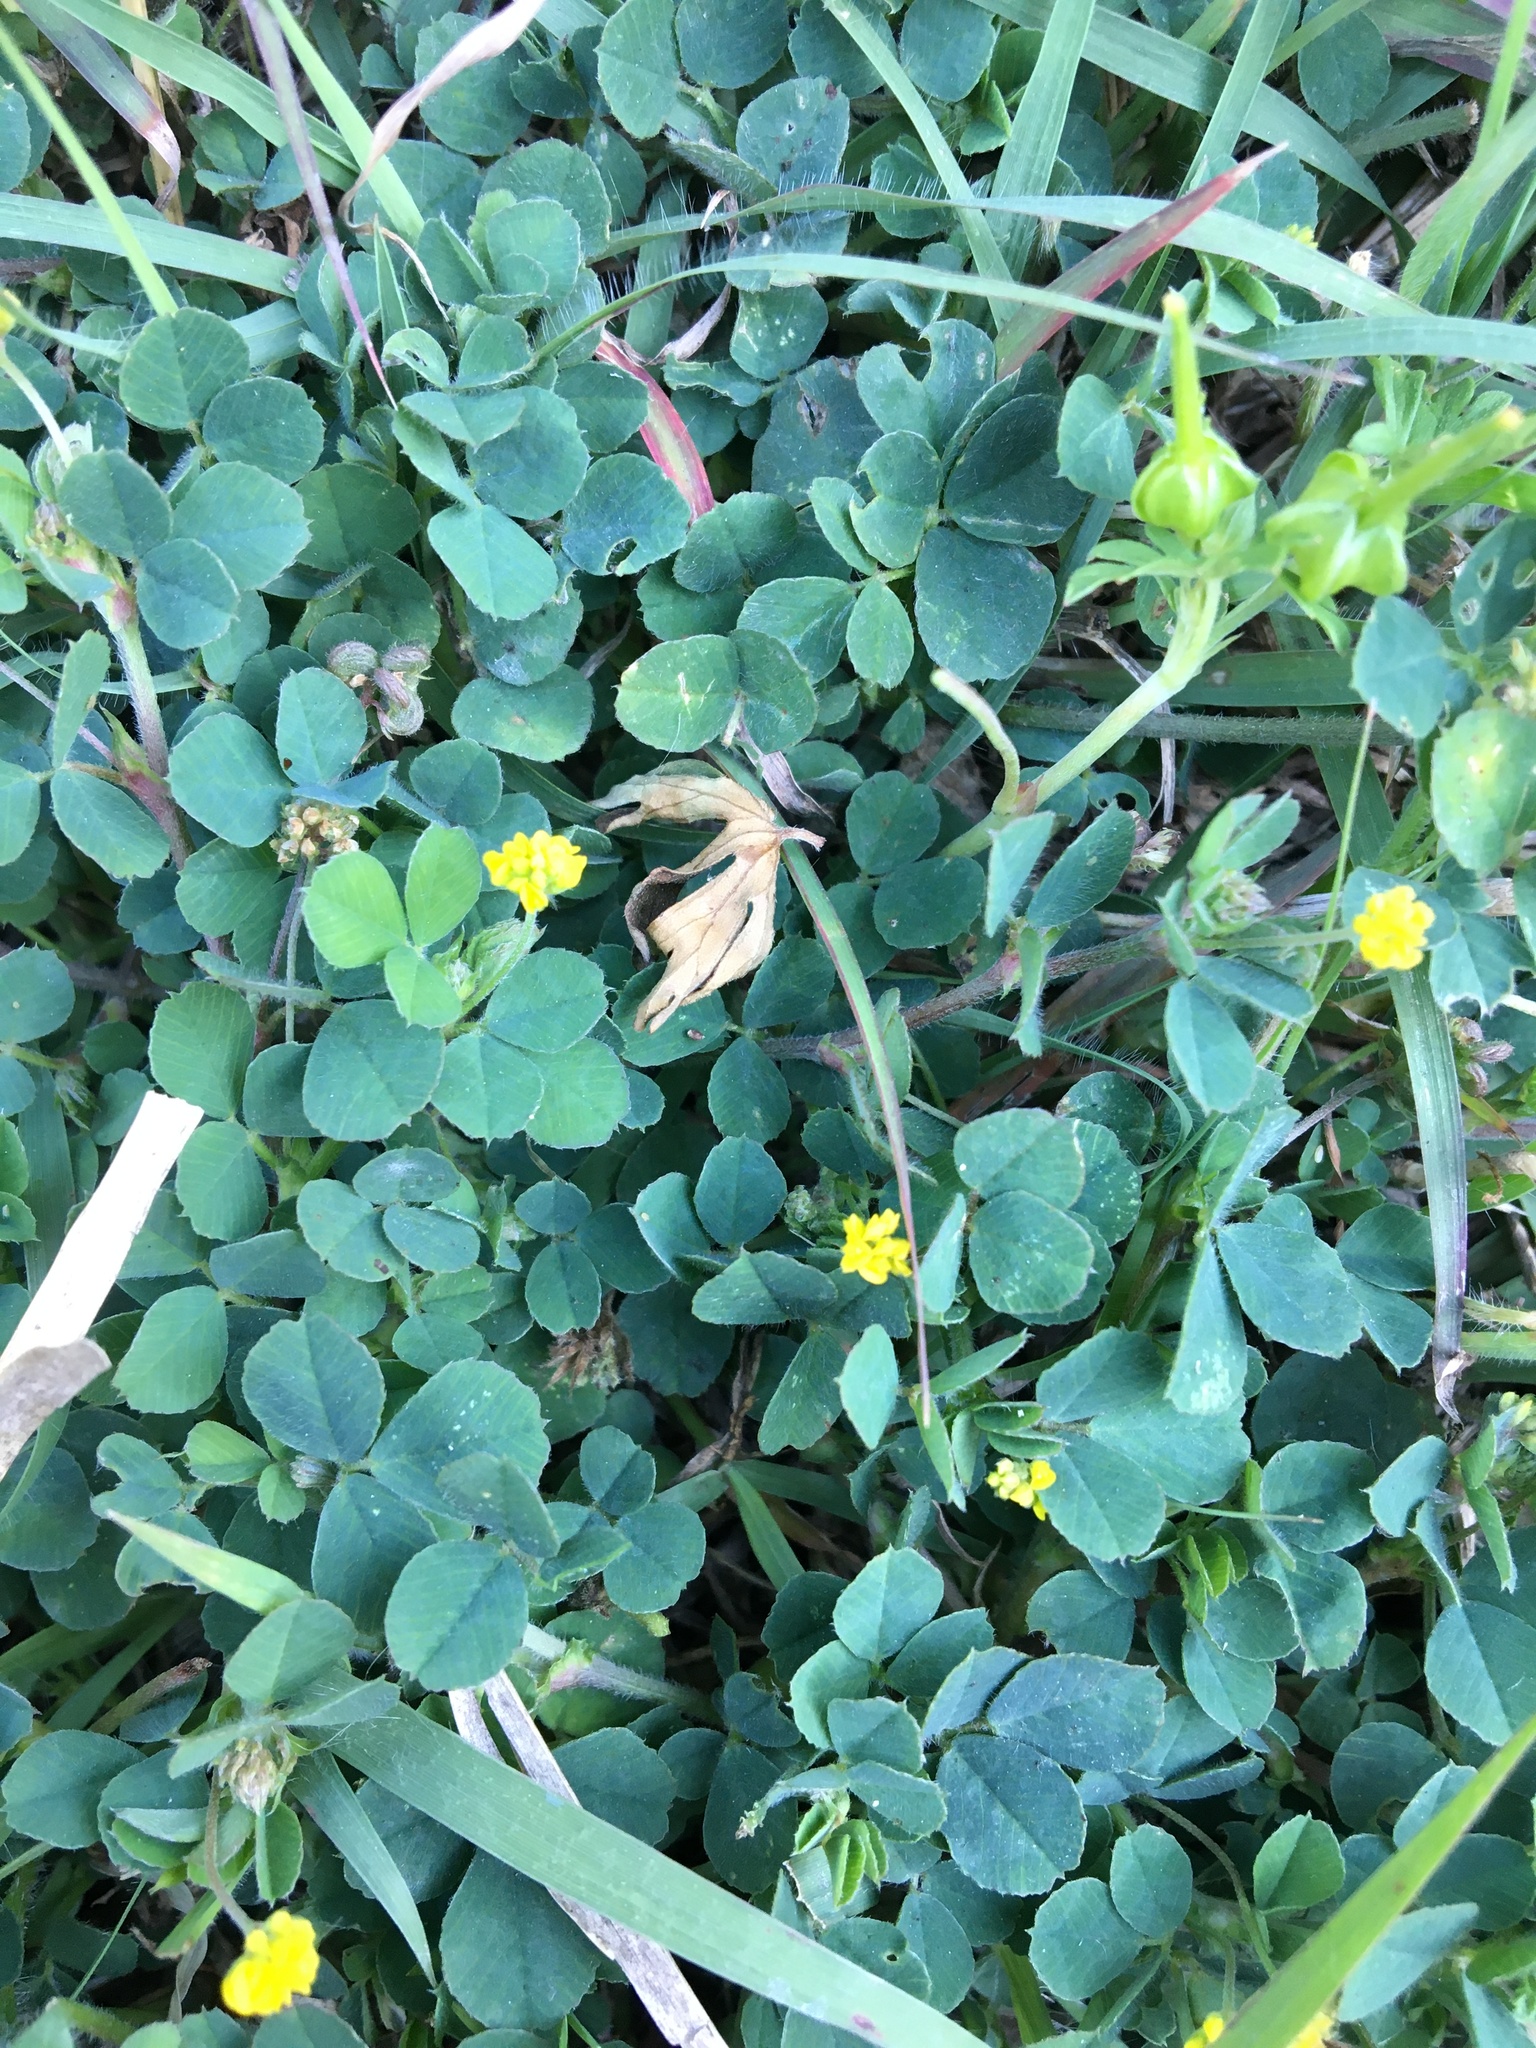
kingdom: Plantae
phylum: Tracheophyta
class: Magnoliopsida
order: Fabales
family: Fabaceae
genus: Medicago
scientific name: Medicago lupulina
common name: Black medick
